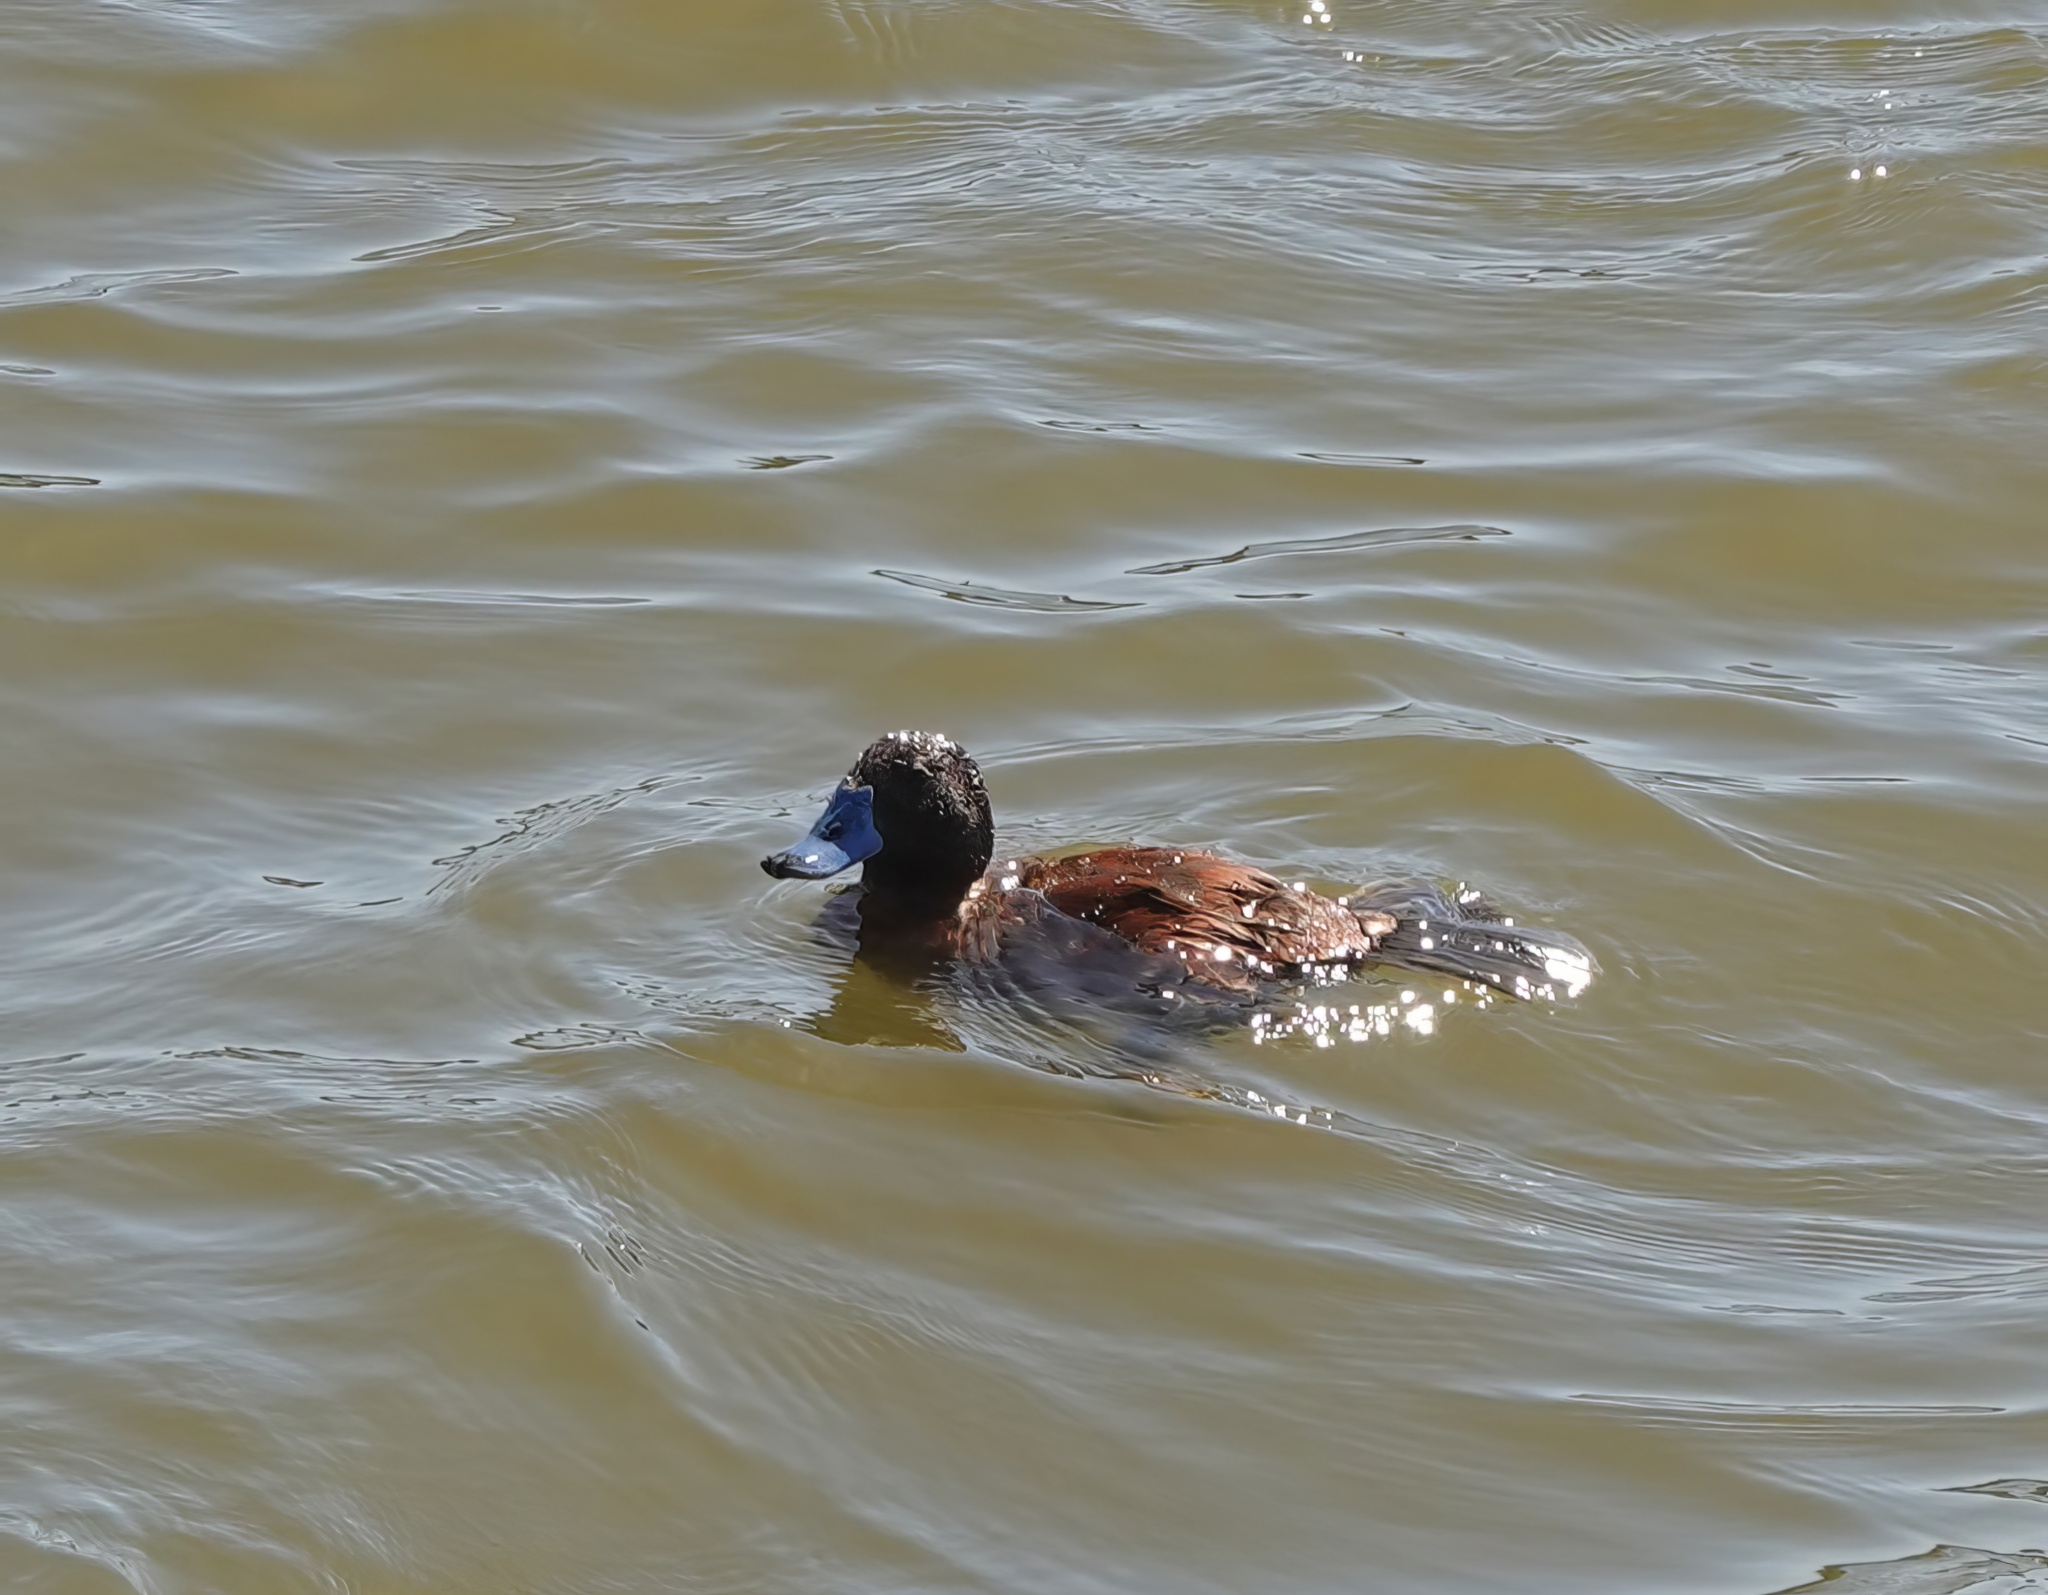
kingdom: Animalia
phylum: Chordata
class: Aves
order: Anseriformes
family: Anatidae
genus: Oxyura
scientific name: Oxyura vittata
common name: Lake duck
